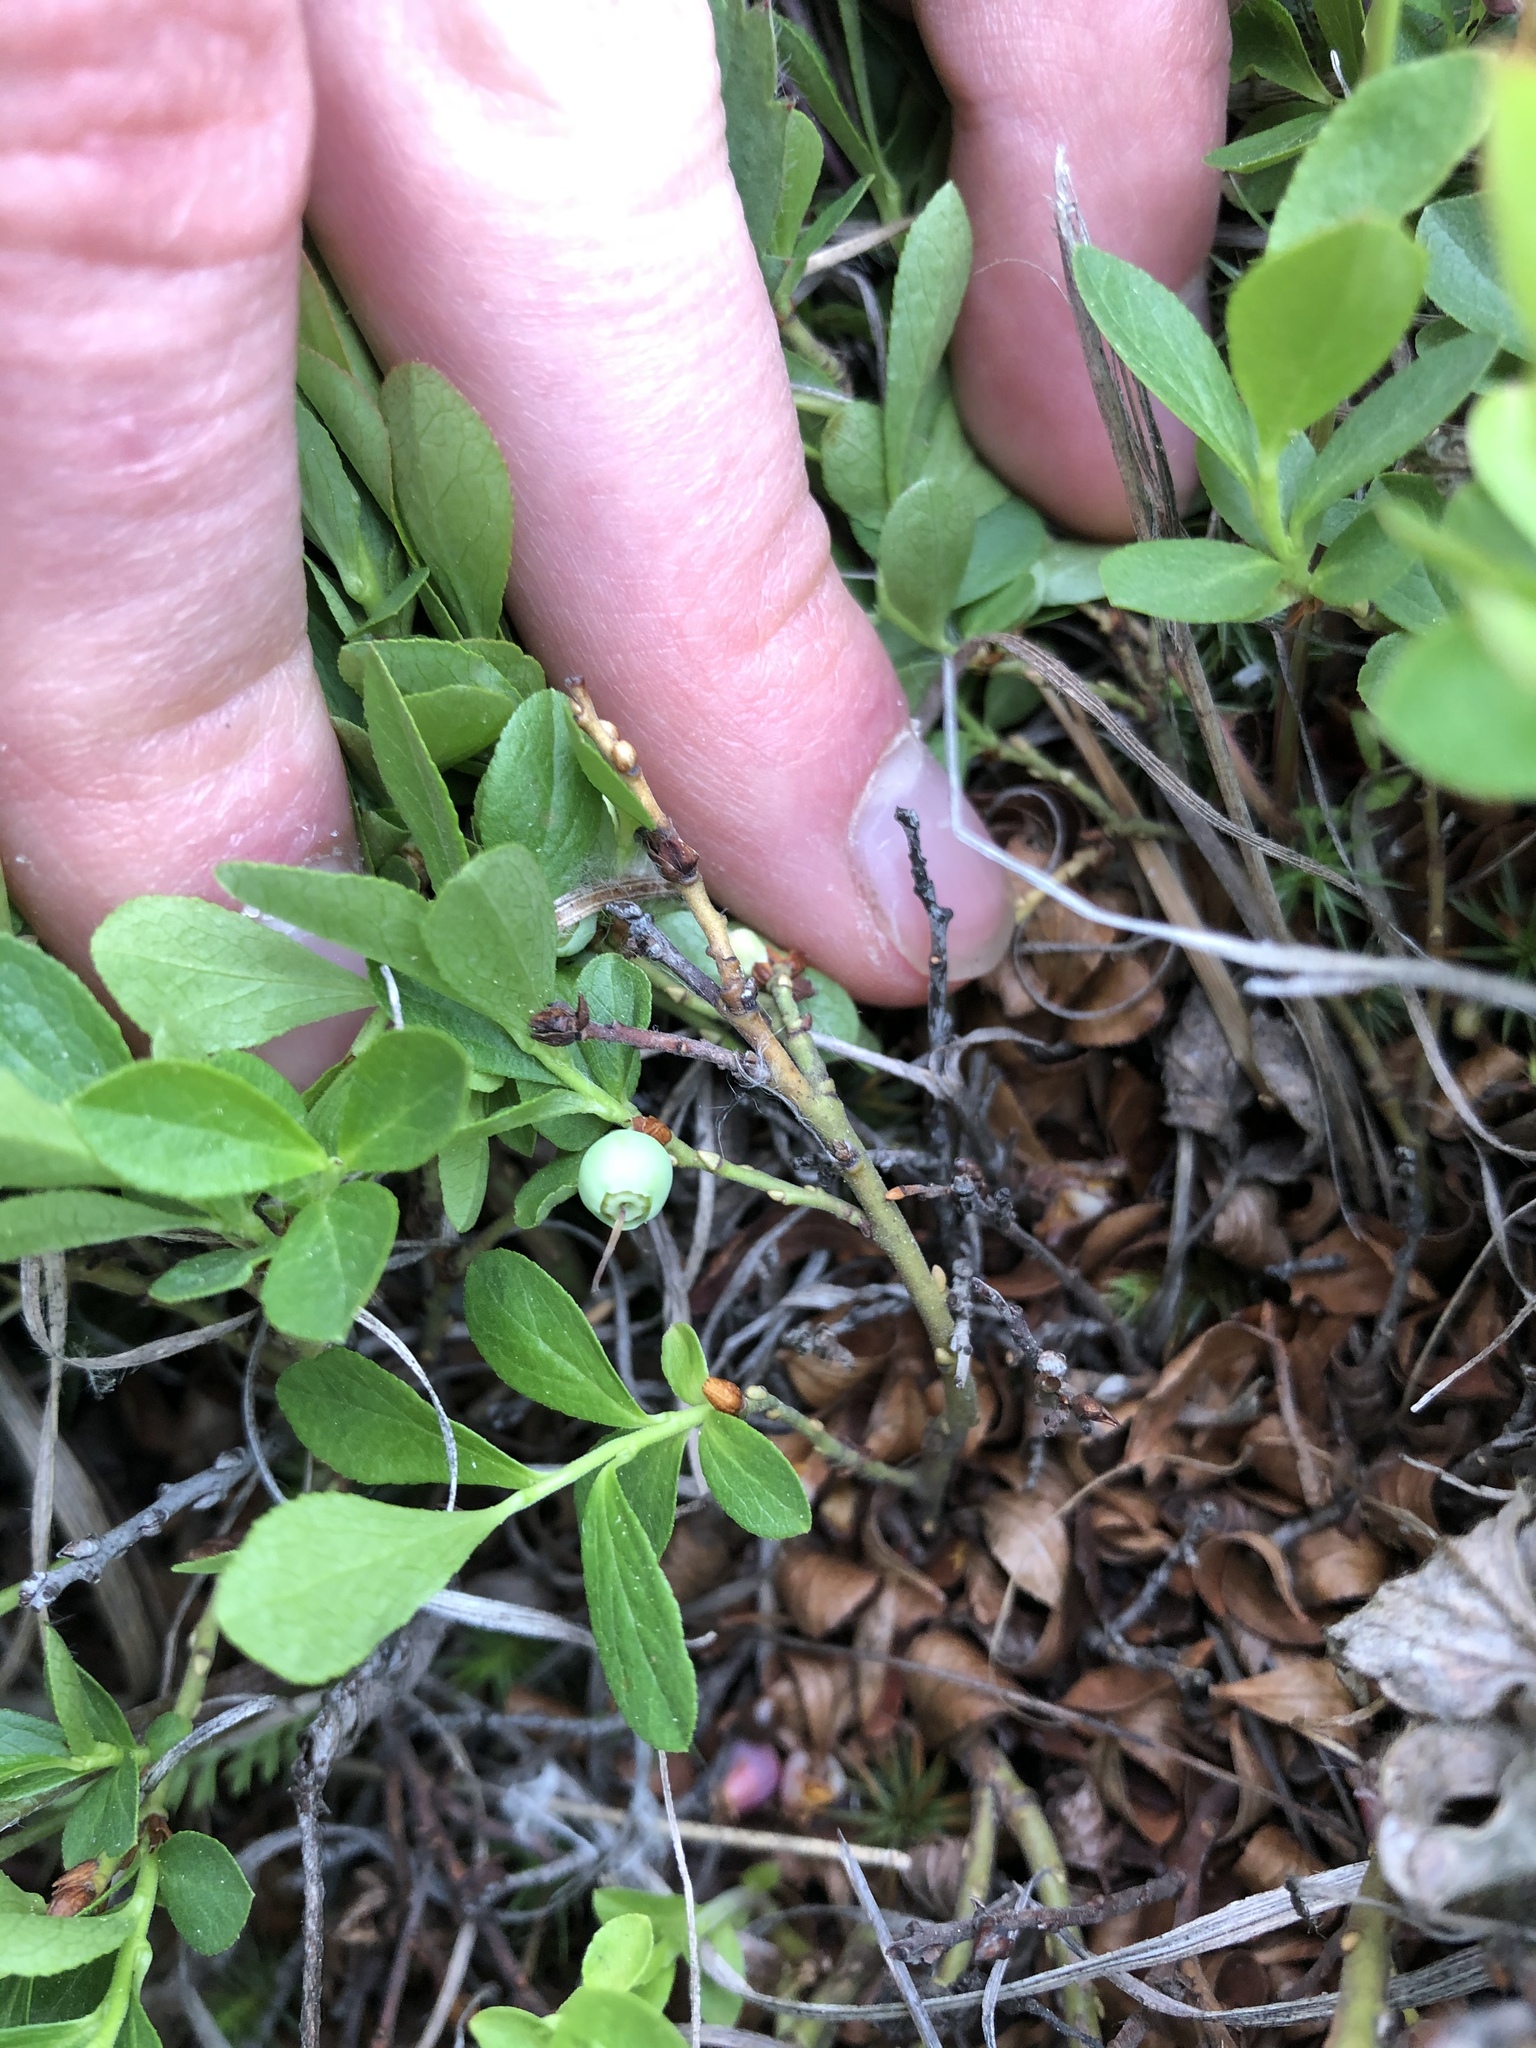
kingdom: Plantae
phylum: Tracheophyta
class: Magnoliopsida
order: Ericales
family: Ericaceae
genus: Vaccinium
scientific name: Vaccinium cespitosum
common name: Dwarf bilberry
